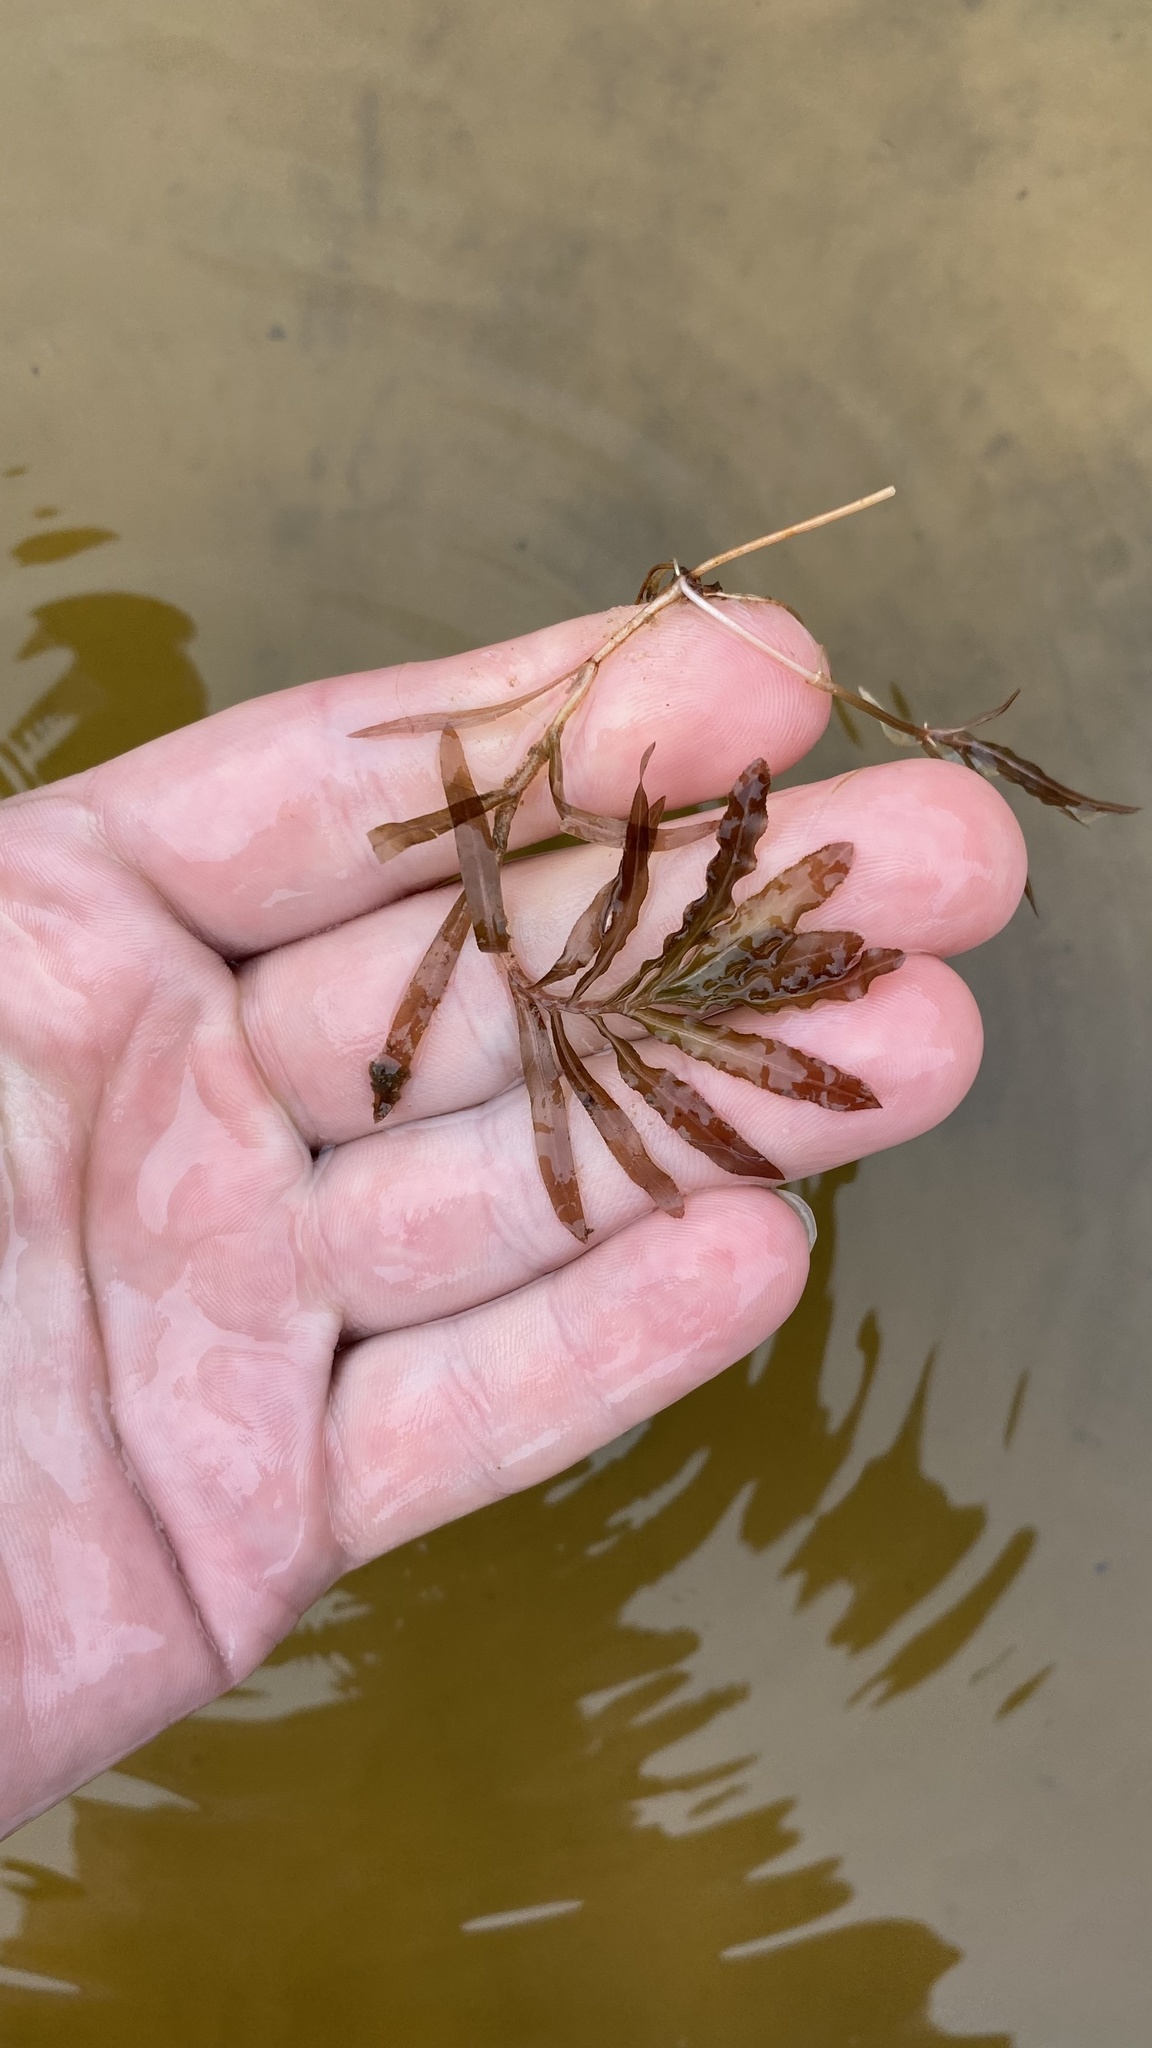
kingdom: Plantae
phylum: Tracheophyta
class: Liliopsida
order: Alismatales
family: Potamogetonaceae
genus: Potamogeton
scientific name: Potamogeton crispus
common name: Curled pondweed
